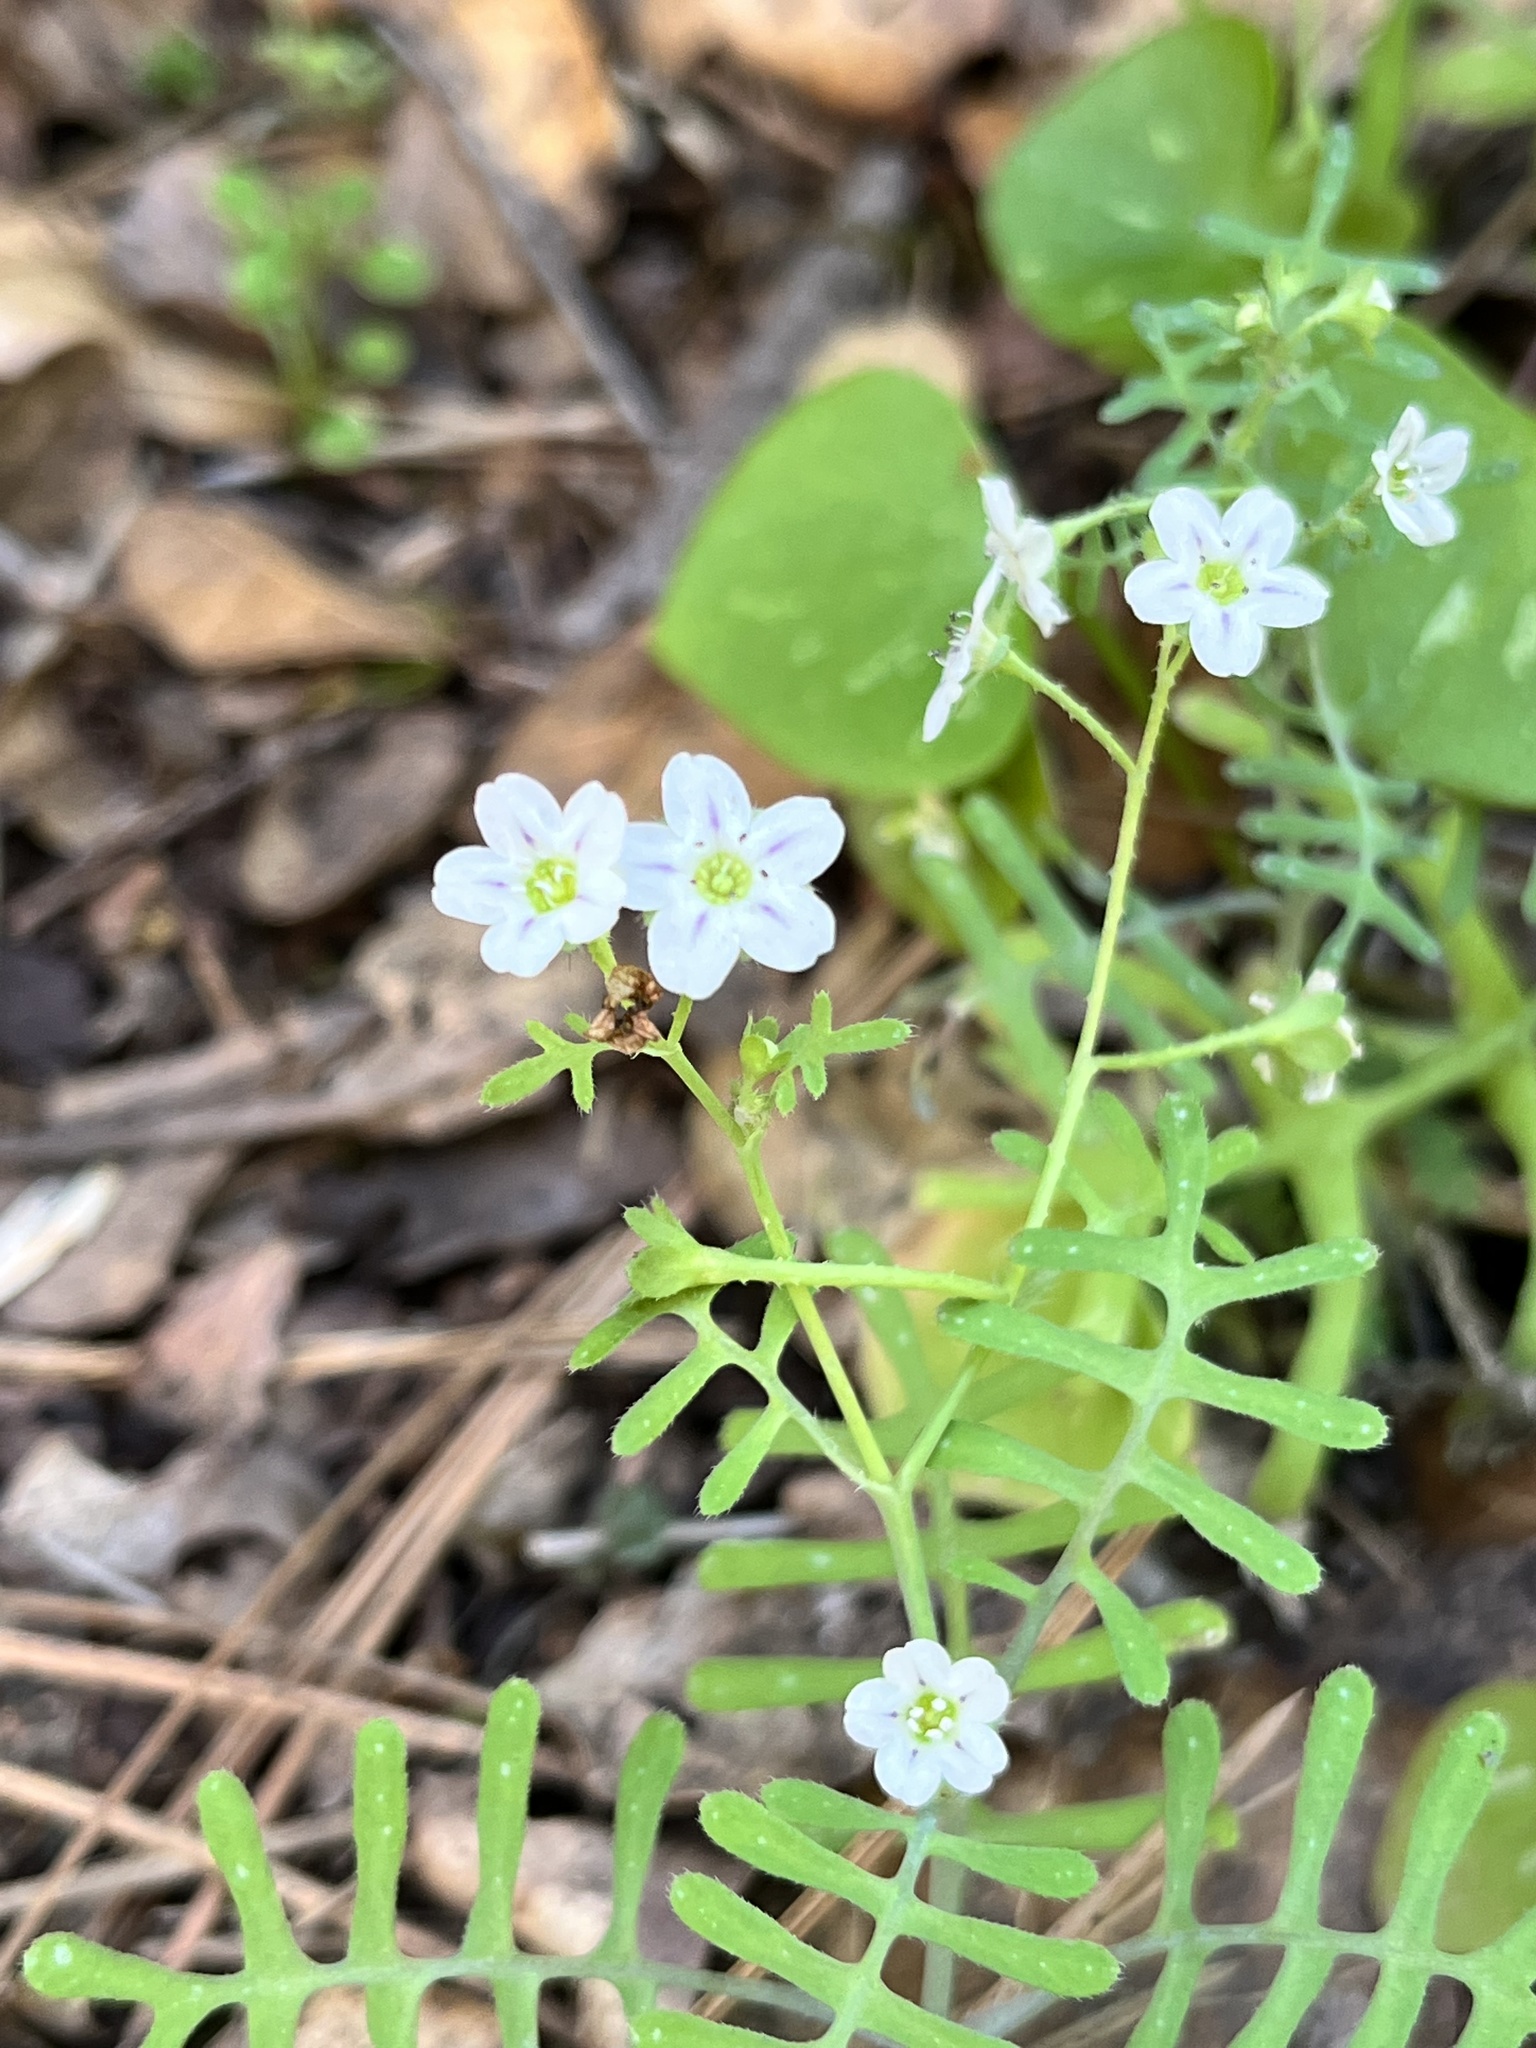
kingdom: Plantae
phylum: Tracheophyta
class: Magnoliopsida
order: Boraginales
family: Hydrophyllaceae
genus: Pholistoma
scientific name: Pholistoma membranaceum
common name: White fiesta-flower
